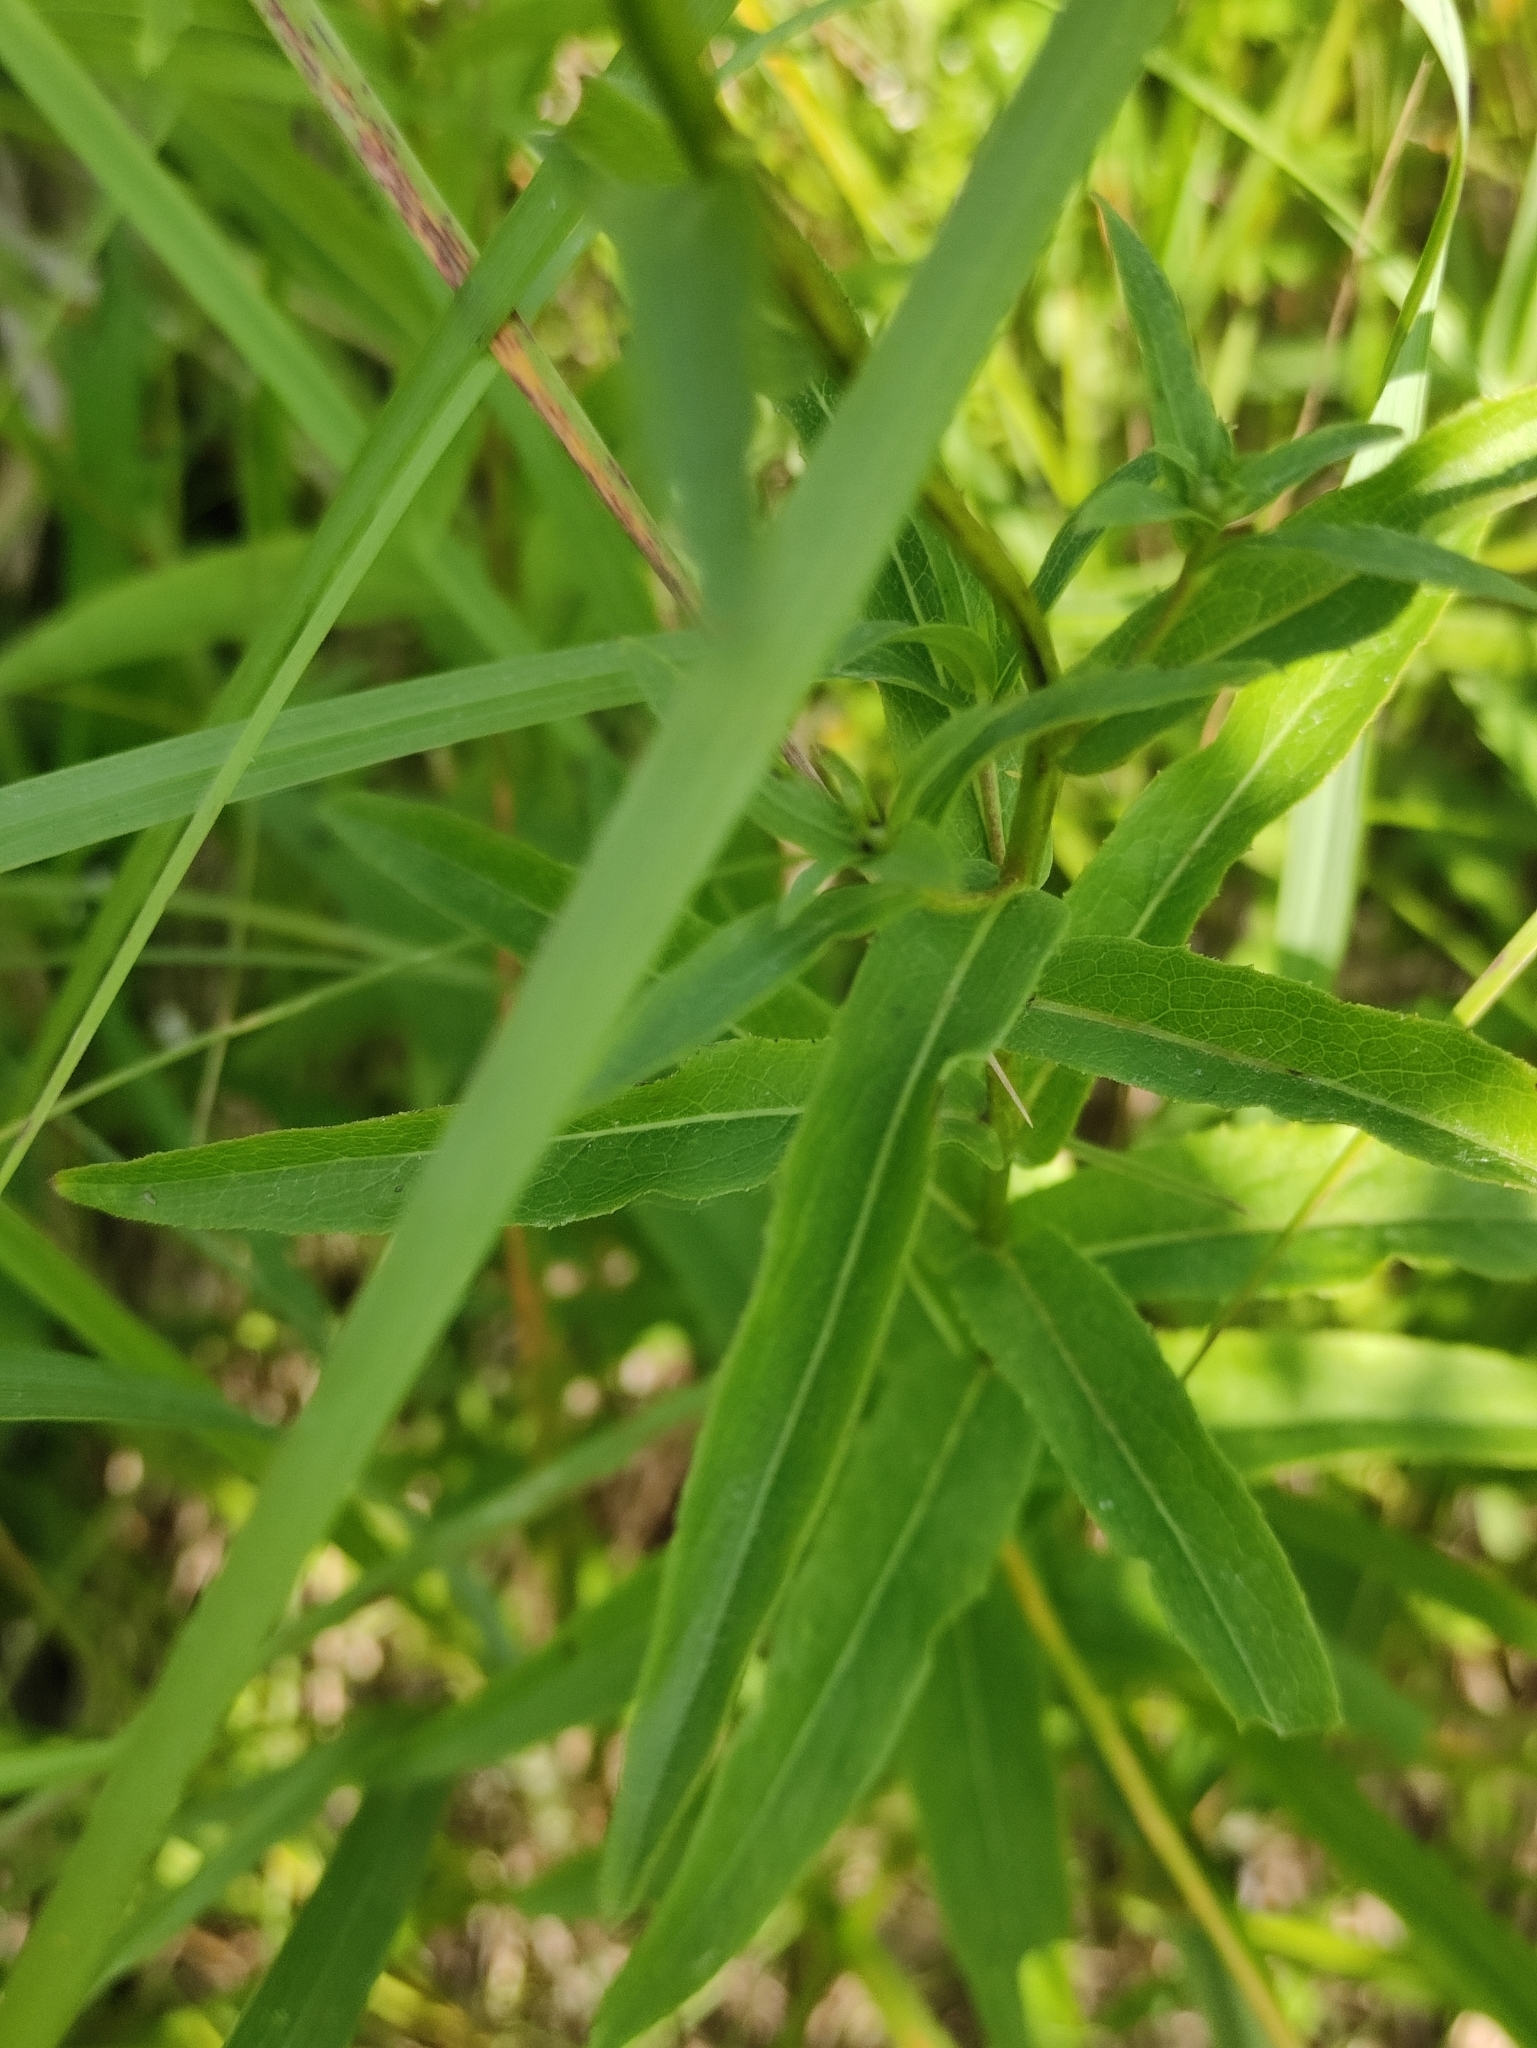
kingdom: Plantae
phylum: Tracheophyta
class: Magnoliopsida
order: Asterales
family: Asteraceae
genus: Pentanema
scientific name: Pentanema salicinum
